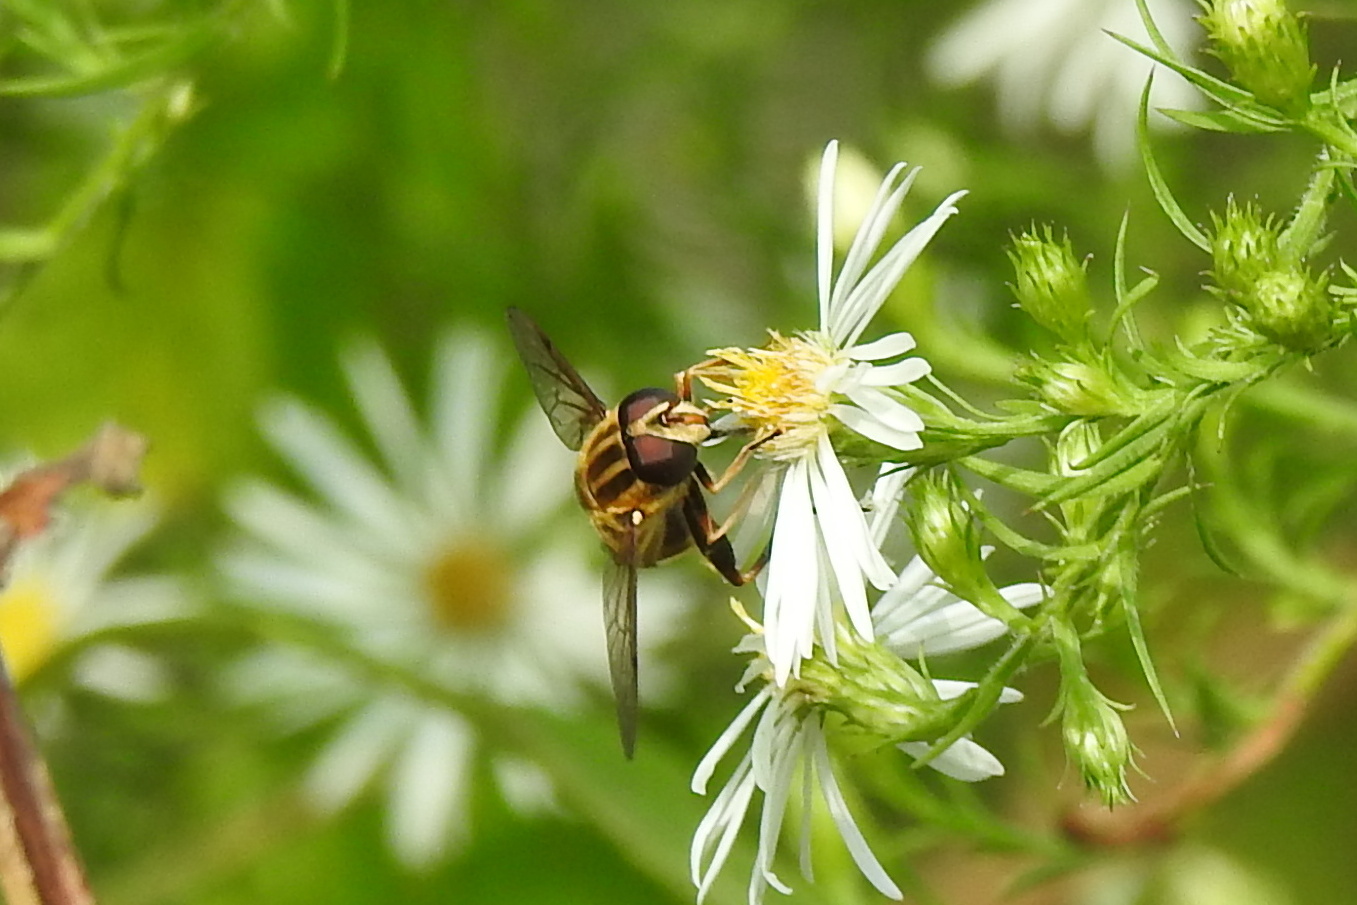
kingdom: Animalia
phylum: Arthropoda
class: Insecta
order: Diptera
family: Syrphidae
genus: Helophilus
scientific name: Helophilus fasciatus
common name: Narrow-headed marsh fly
